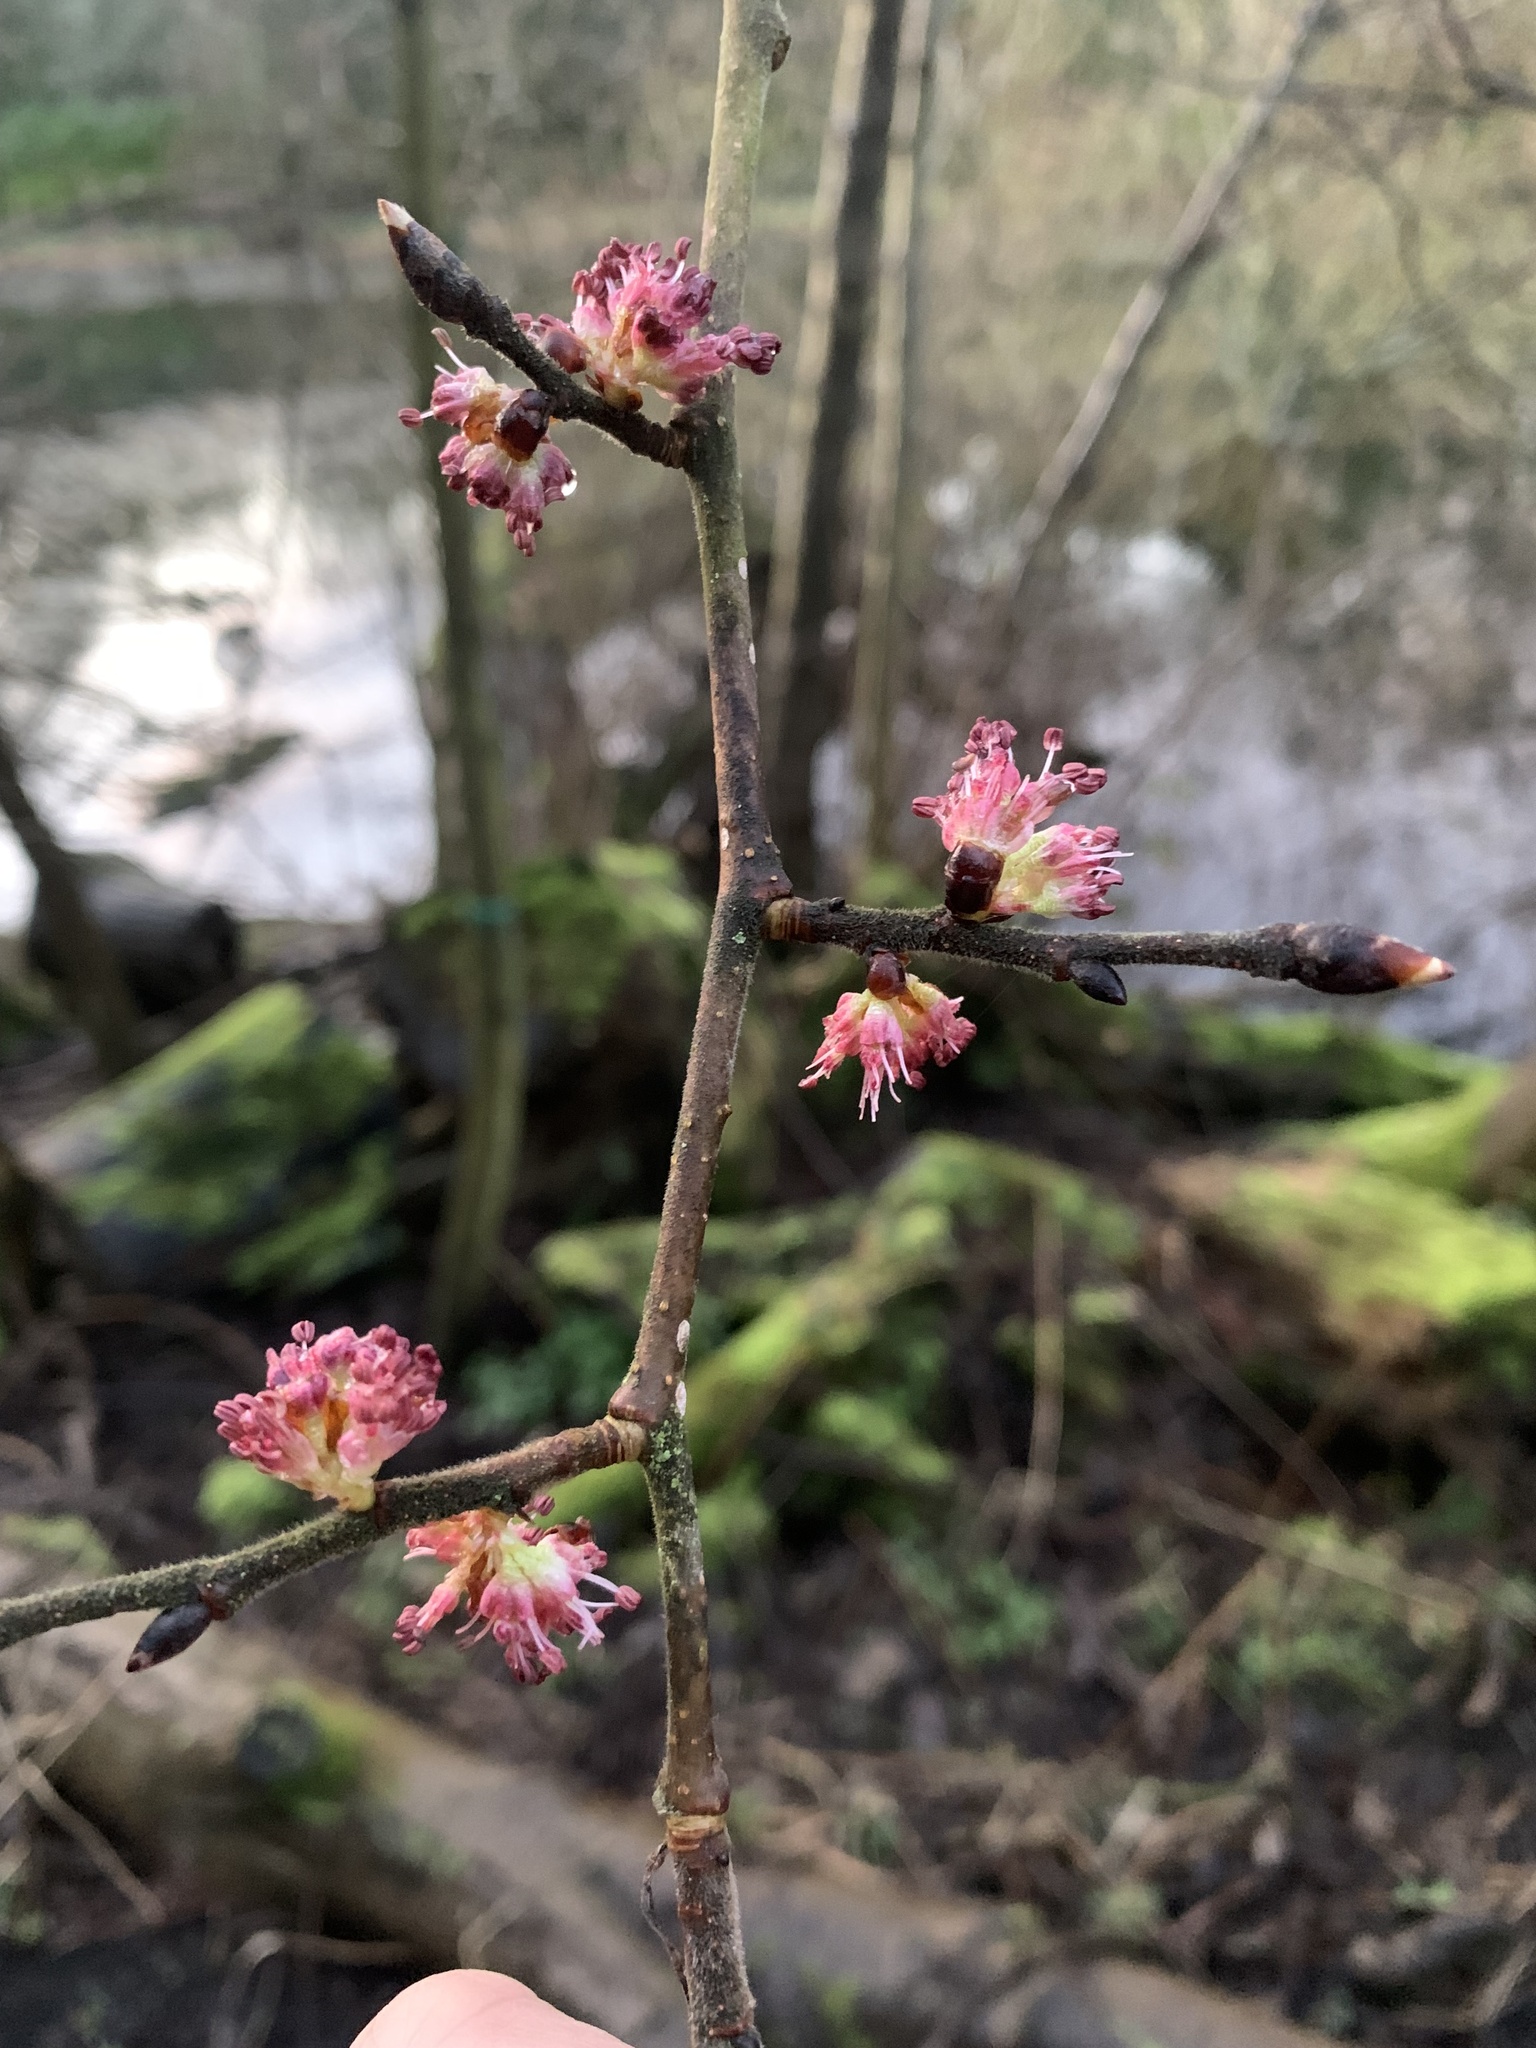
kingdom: Plantae
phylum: Tracheophyta
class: Magnoliopsida
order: Rosales
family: Ulmaceae
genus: Ulmus
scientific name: Ulmus glabra
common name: Wych elm
